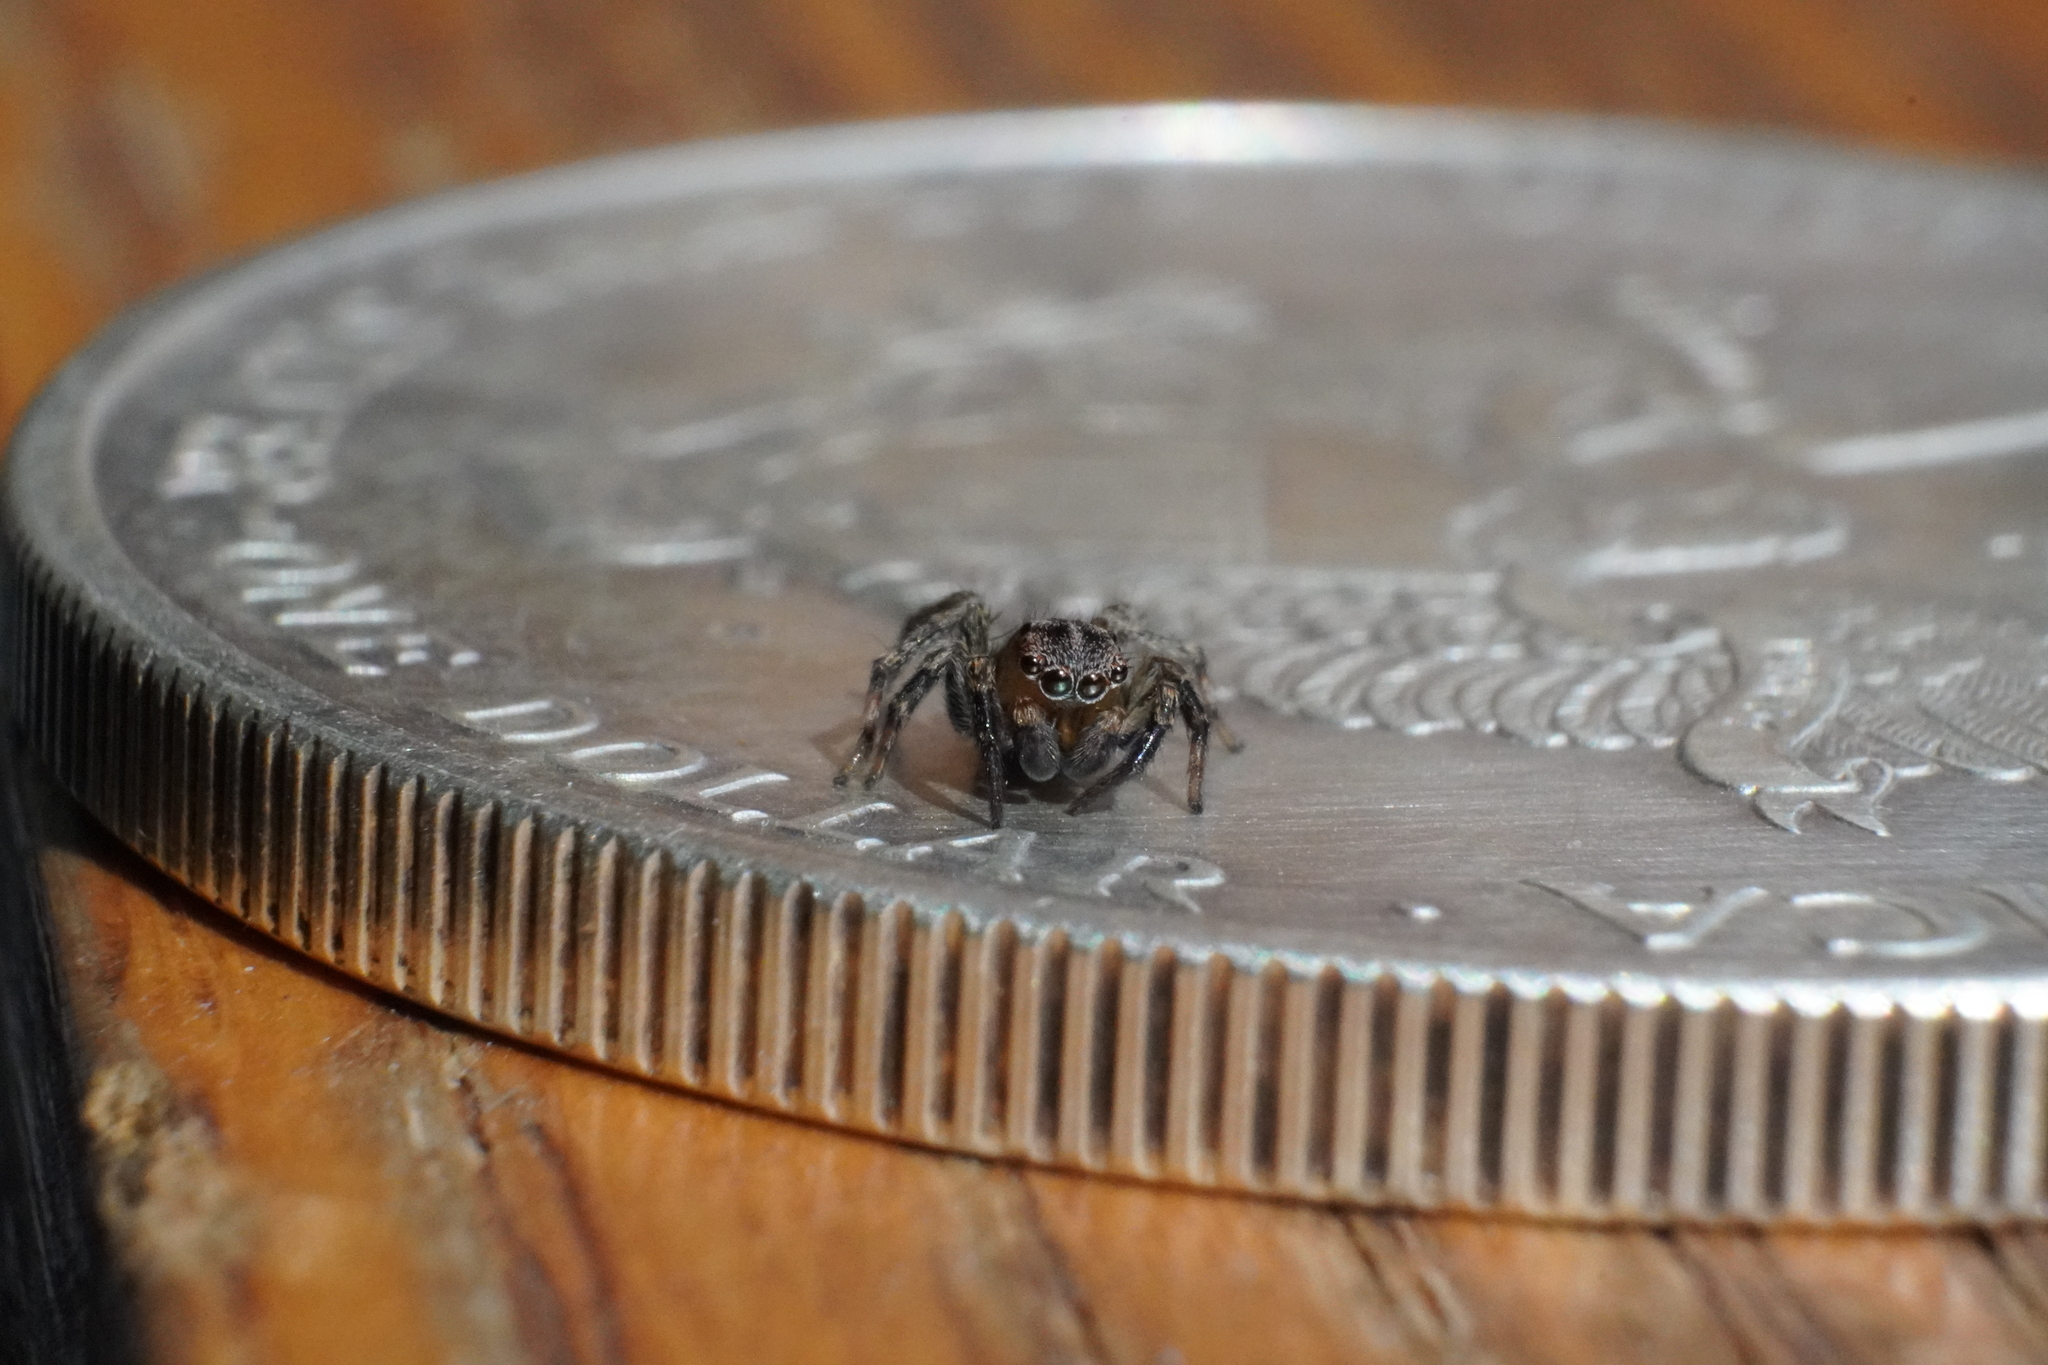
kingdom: Animalia
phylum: Arthropoda
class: Arachnida
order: Araneae
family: Salticidae
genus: Naphrys
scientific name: Naphrys pulex
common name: Flea jumping spider
